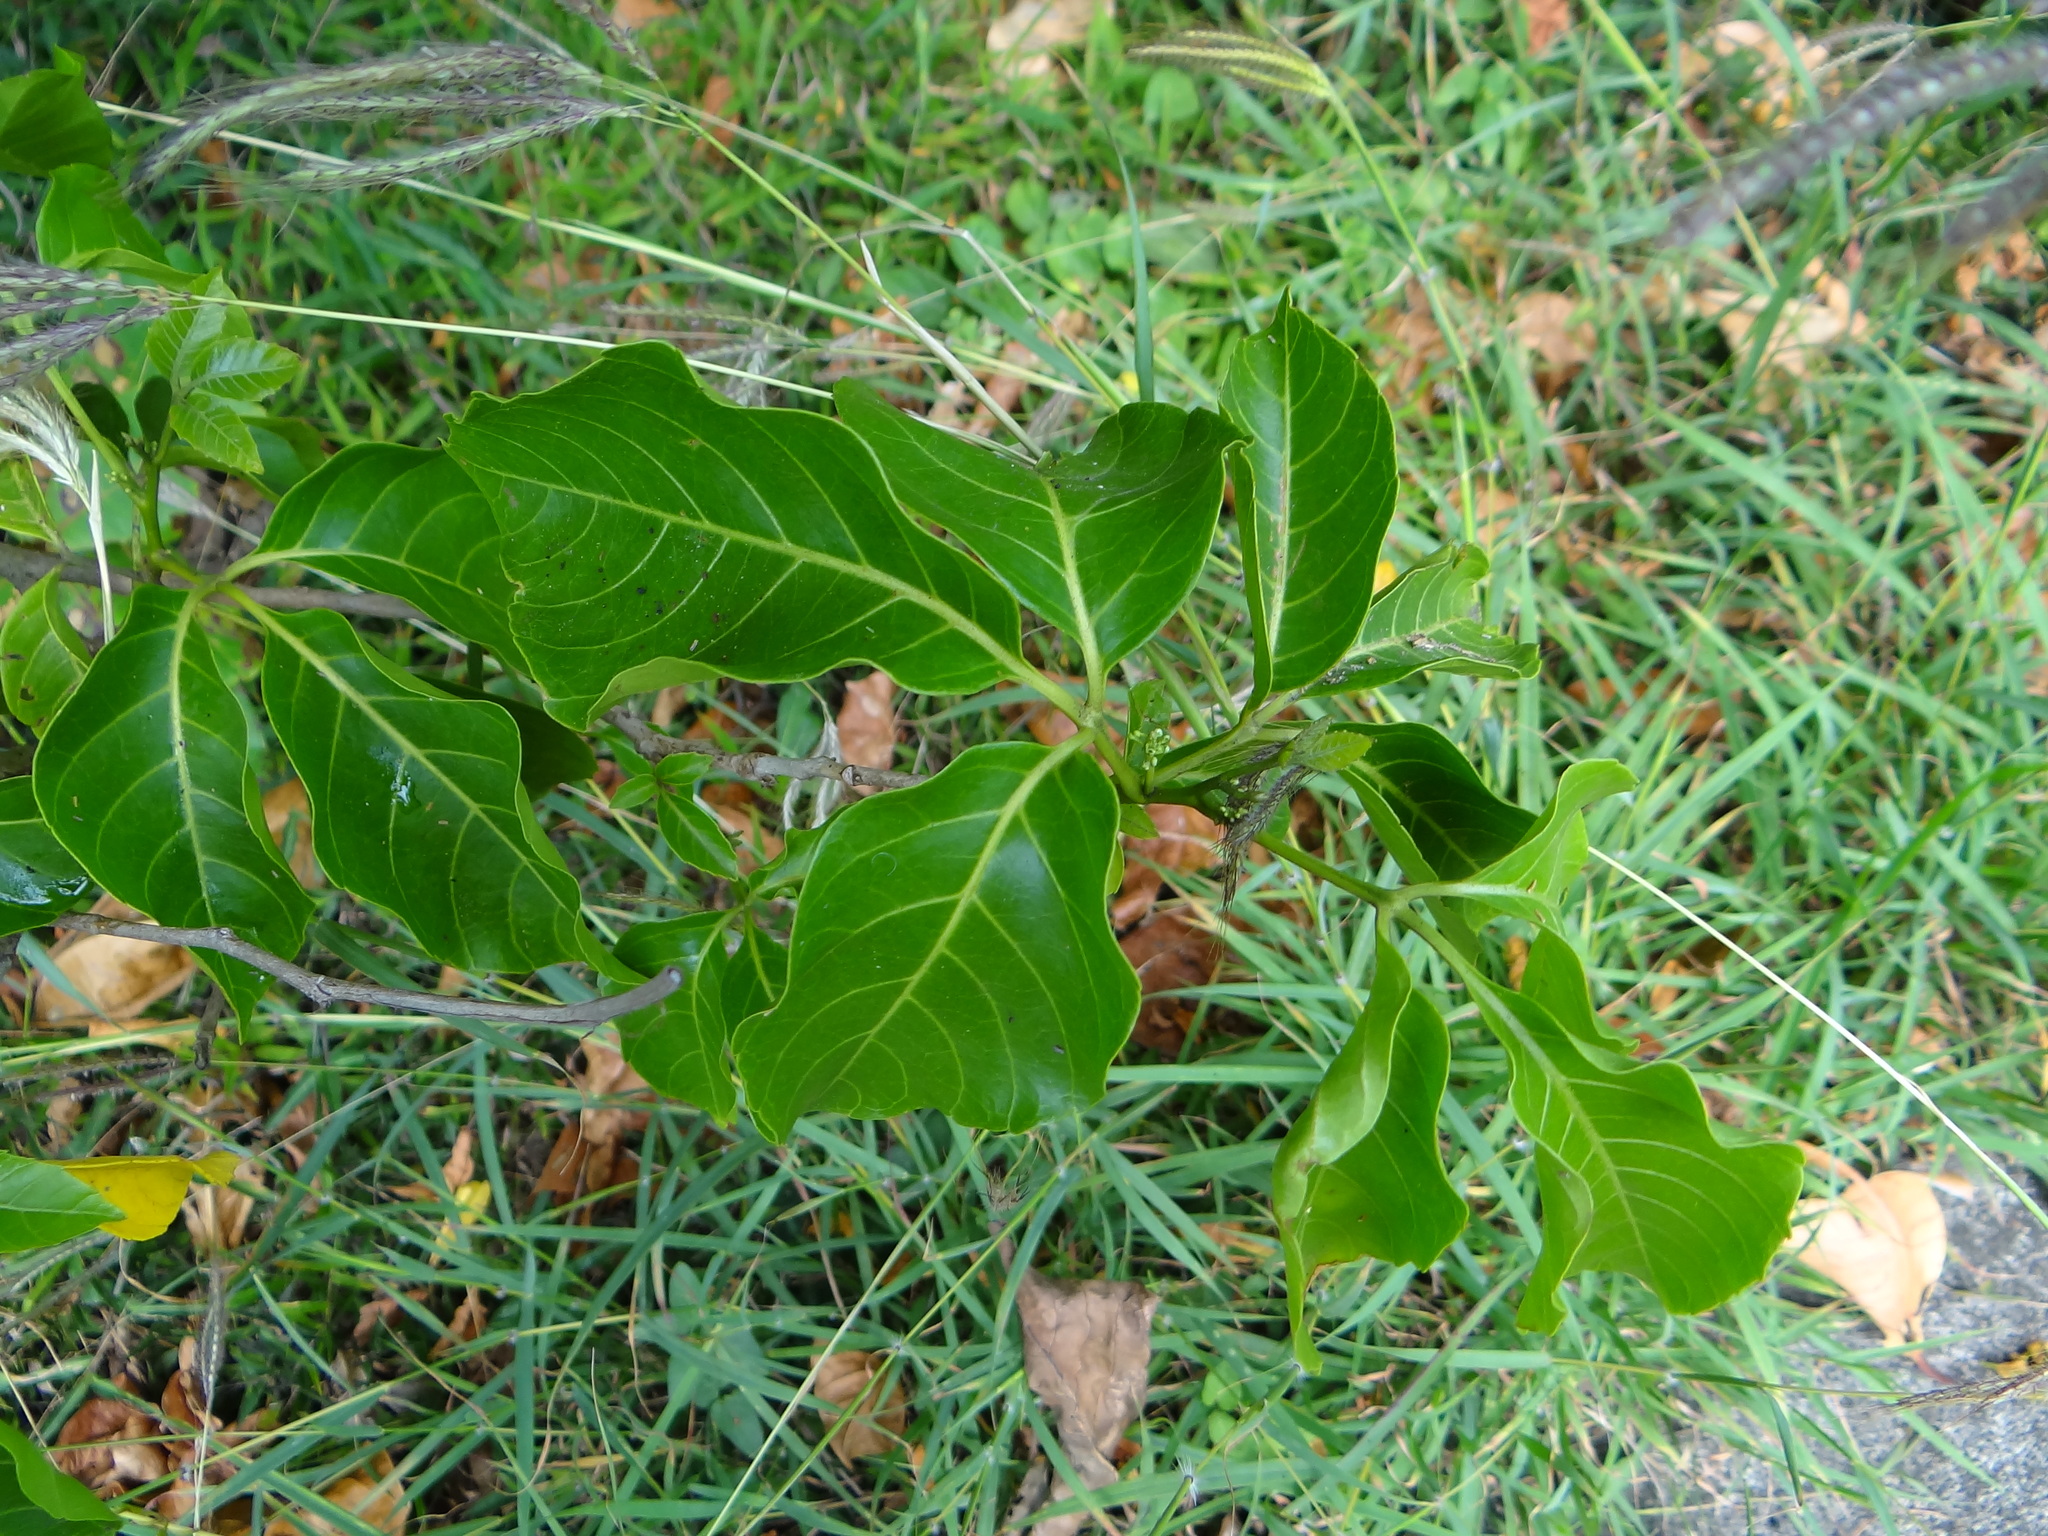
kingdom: Plantae
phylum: Tracheophyta
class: Magnoliopsida
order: Sapindales
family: Sapindaceae
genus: Allophylus
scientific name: Allophylus timorensis
